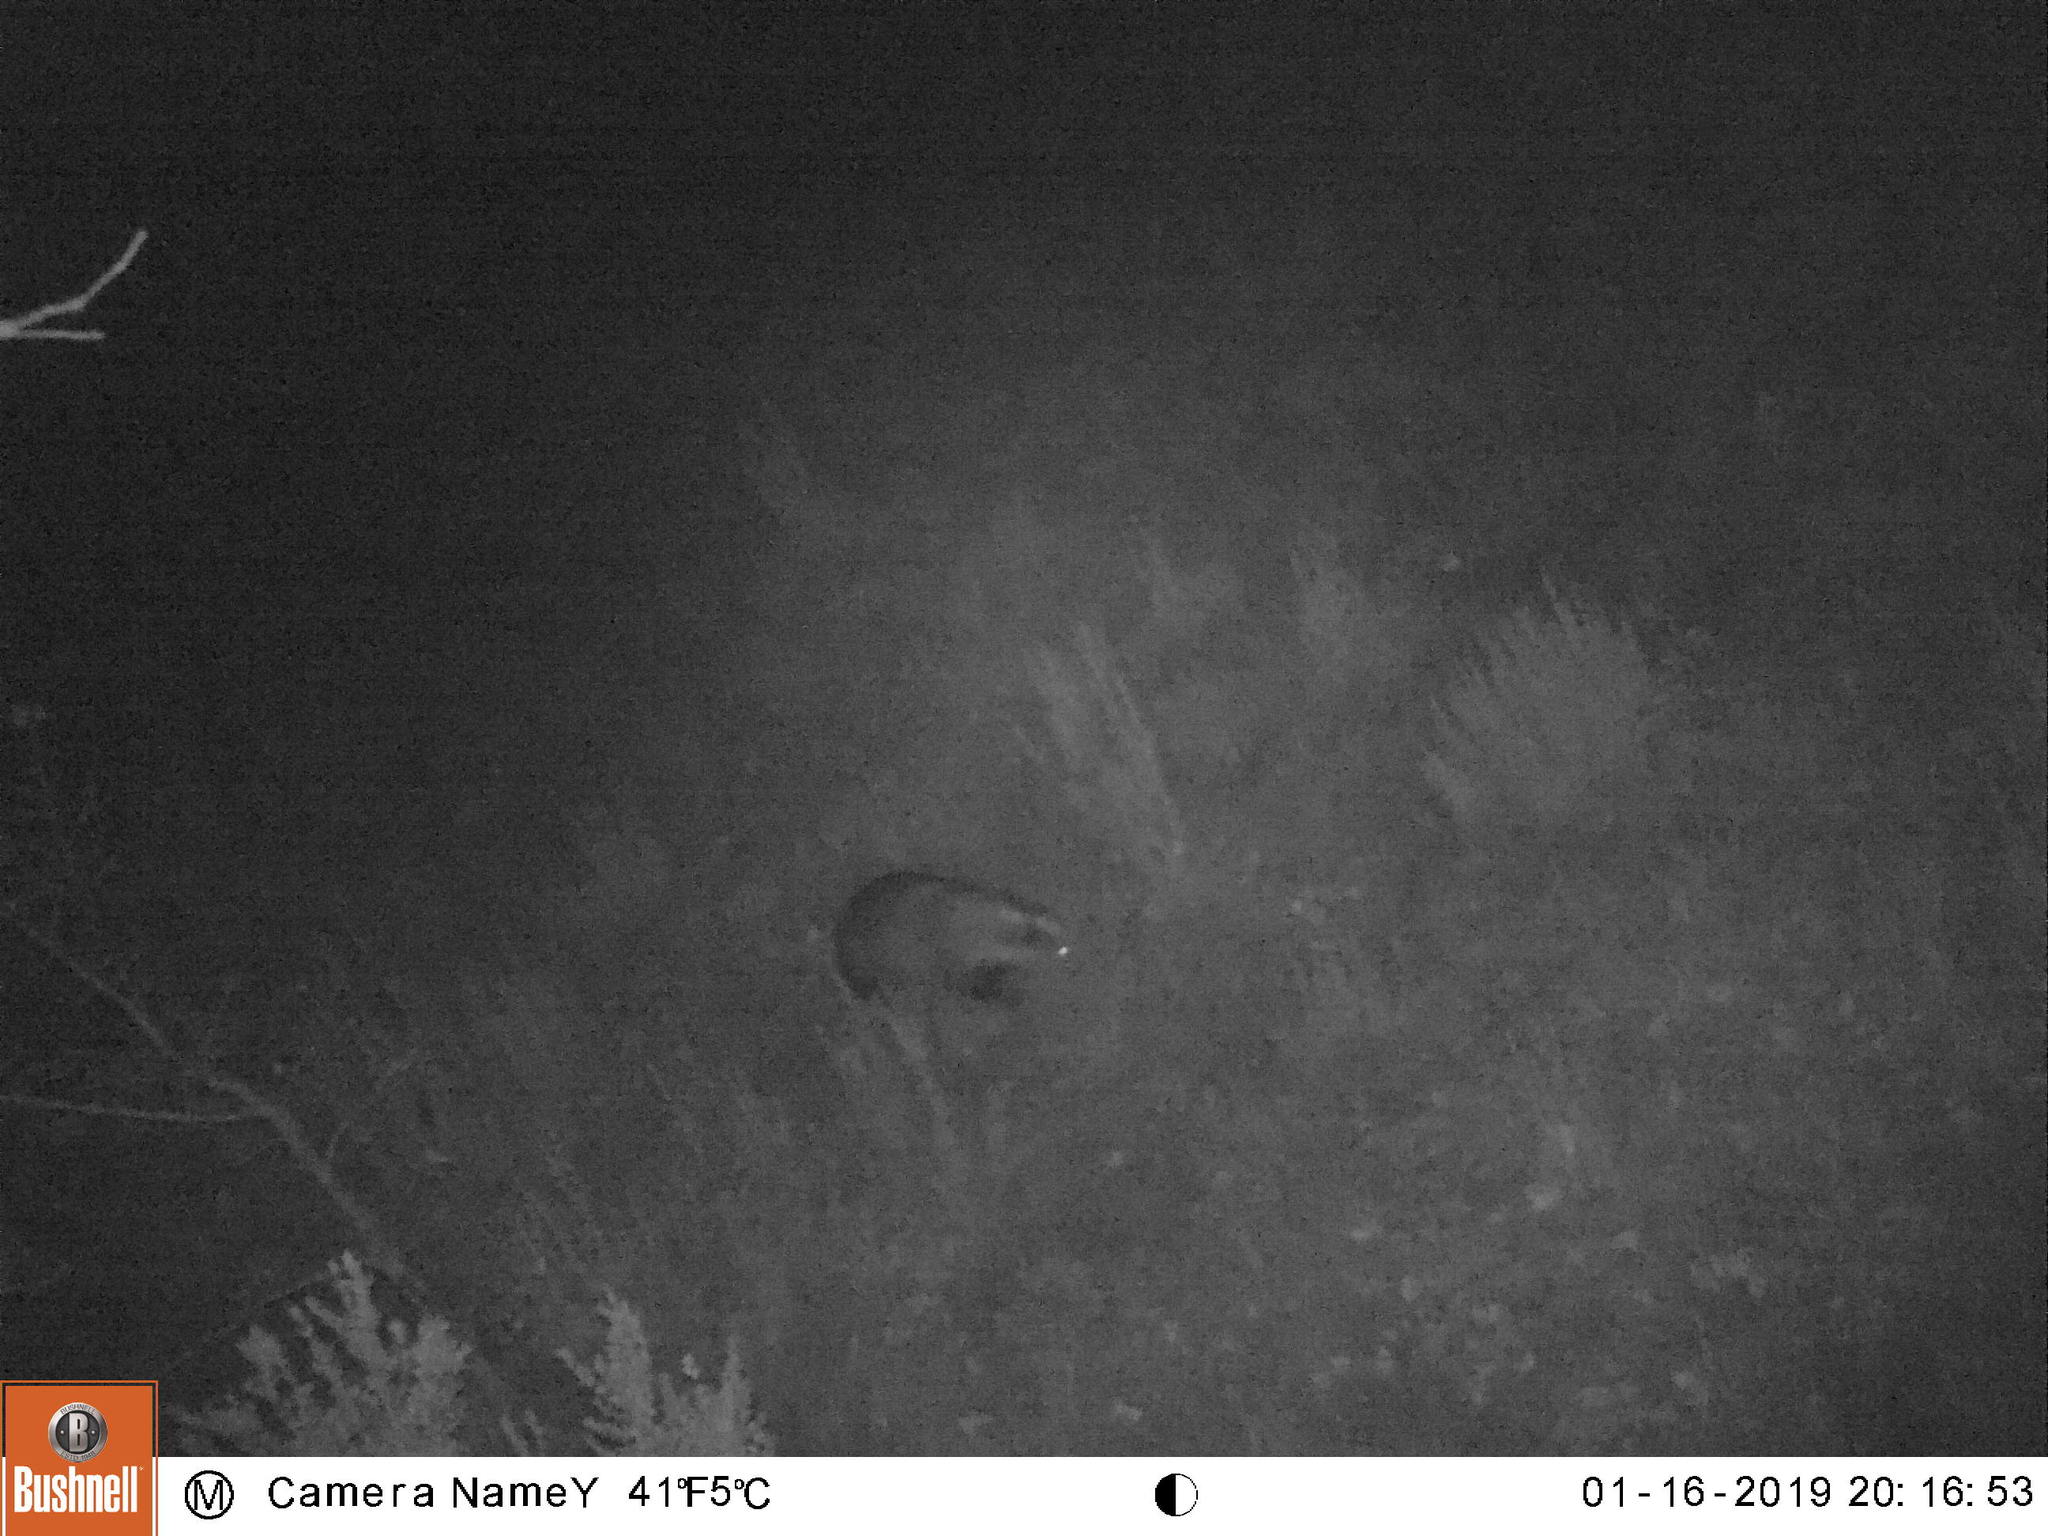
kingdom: Animalia
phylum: Chordata
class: Mammalia
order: Carnivora
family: Mustelidae
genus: Meles
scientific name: Meles meles
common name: Eurasian badger
